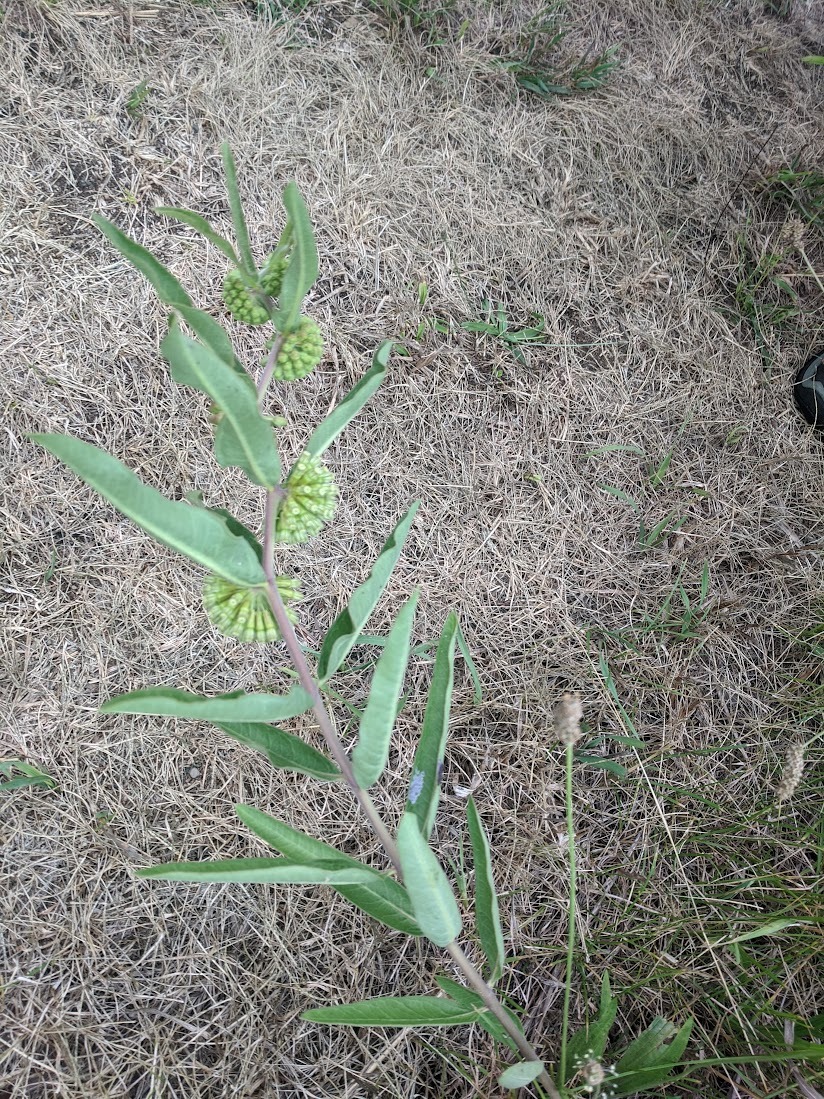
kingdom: Plantae
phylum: Tracheophyta
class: Magnoliopsida
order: Gentianales
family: Apocynaceae
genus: Asclepias
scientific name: Asclepias viridiflora
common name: Green comet milkweed
